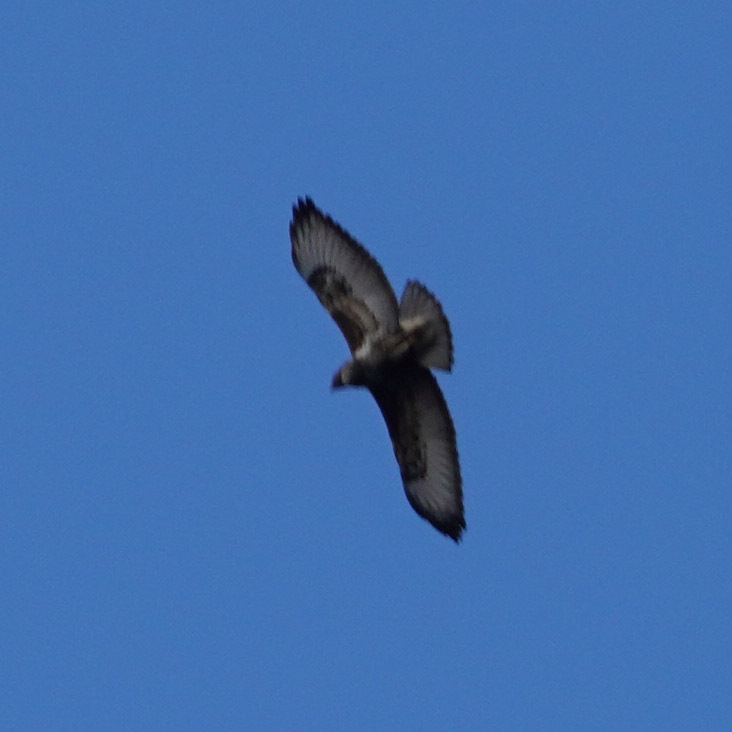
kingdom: Animalia
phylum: Chordata
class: Aves
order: Accipitriformes
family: Accipitridae
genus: Buteo
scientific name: Buteo buteo
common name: Common buzzard
